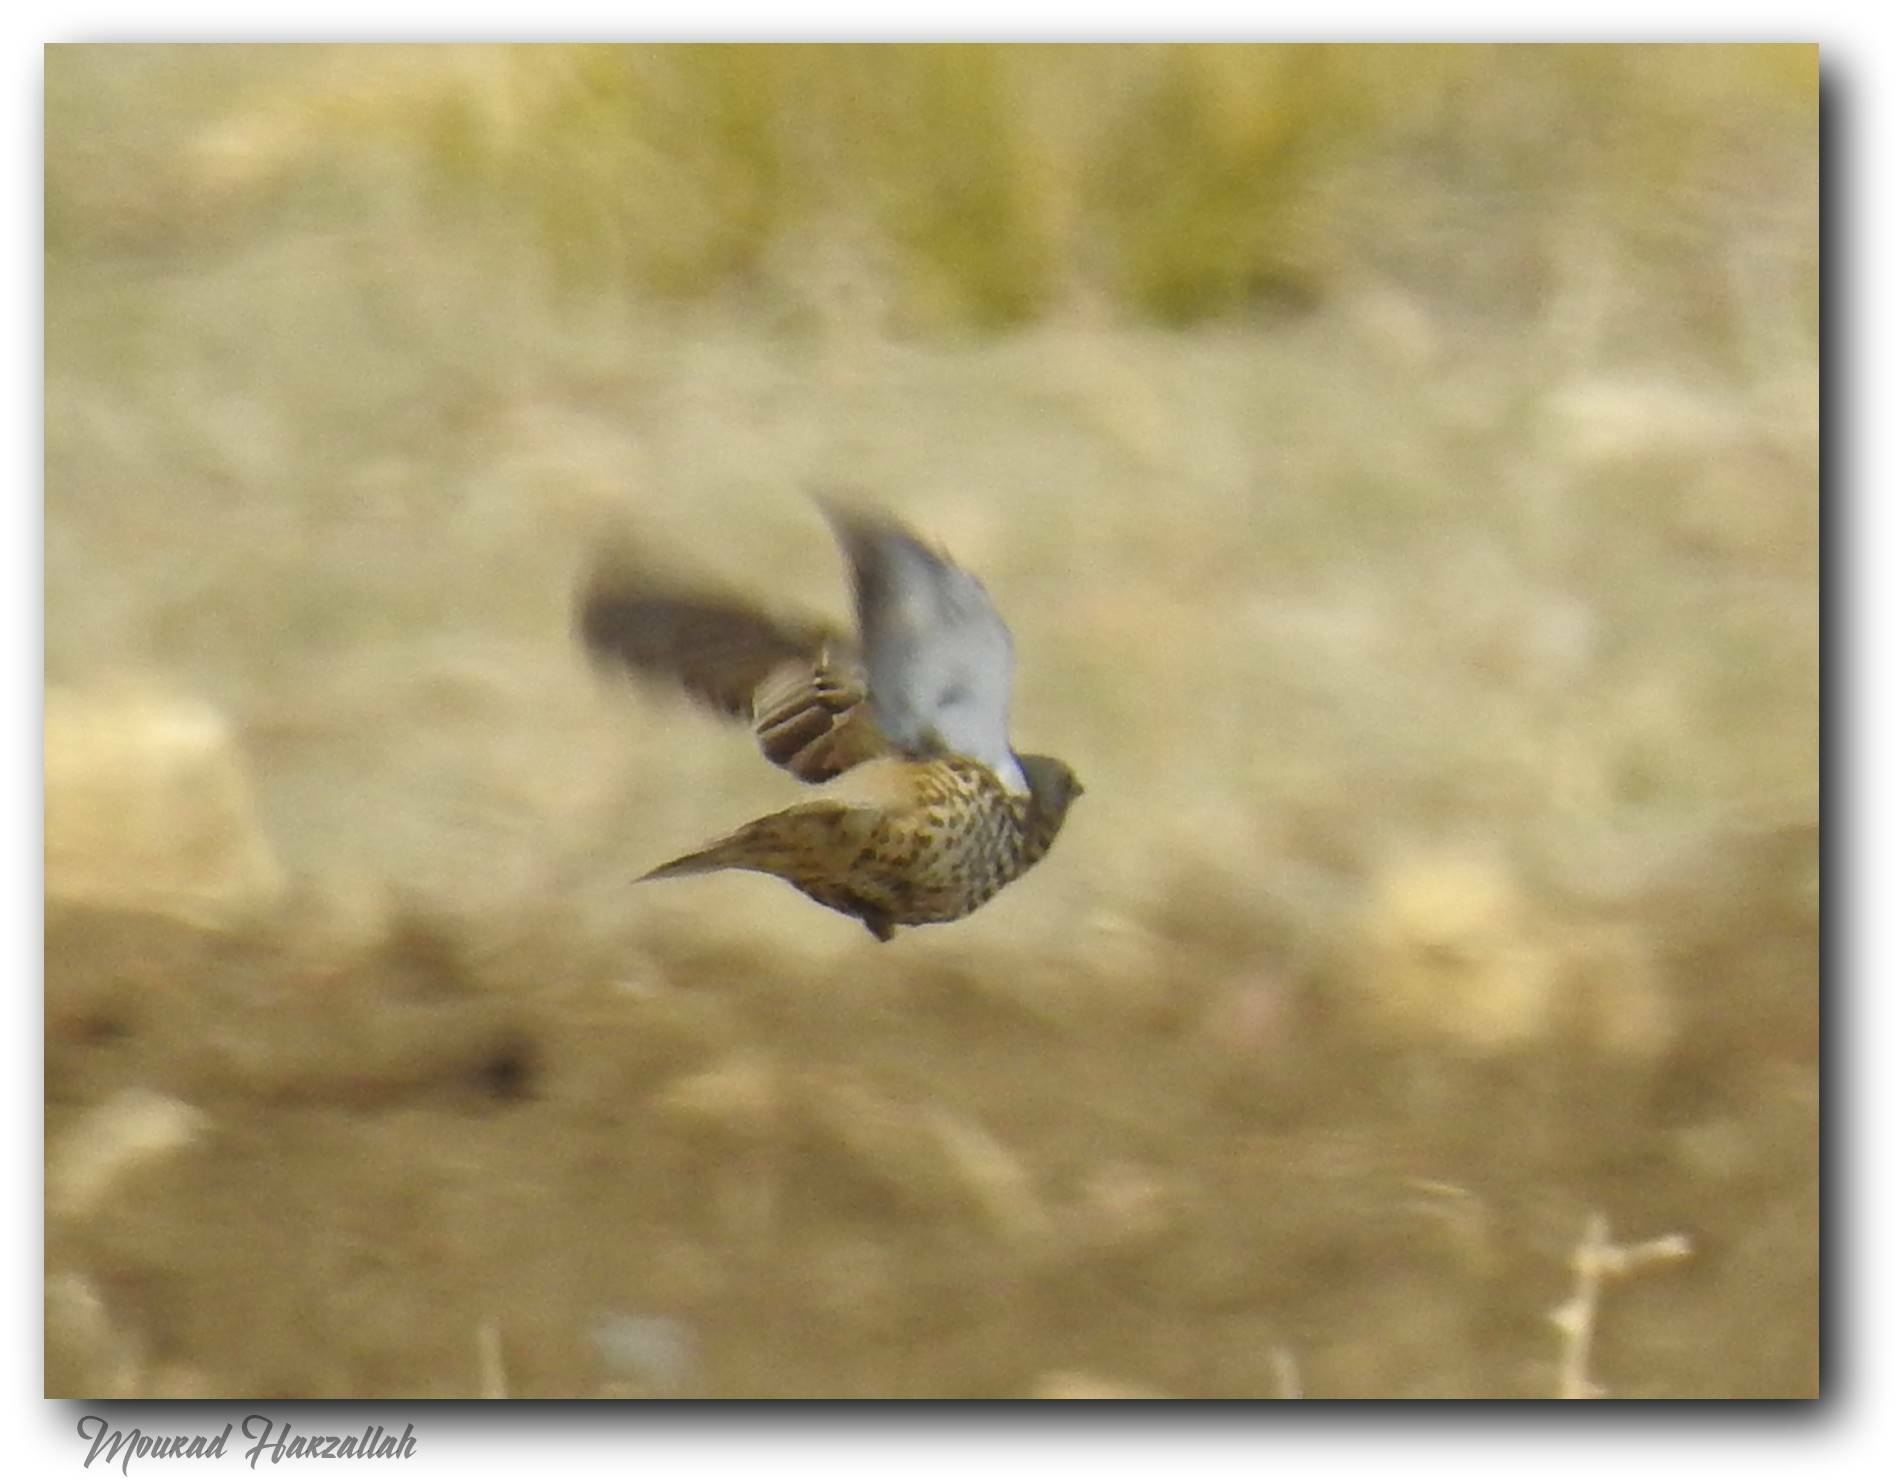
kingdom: Animalia
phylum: Chordata
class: Aves
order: Passeriformes
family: Turdidae
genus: Turdus
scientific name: Turdus viscivorus
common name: Mistle thrush
